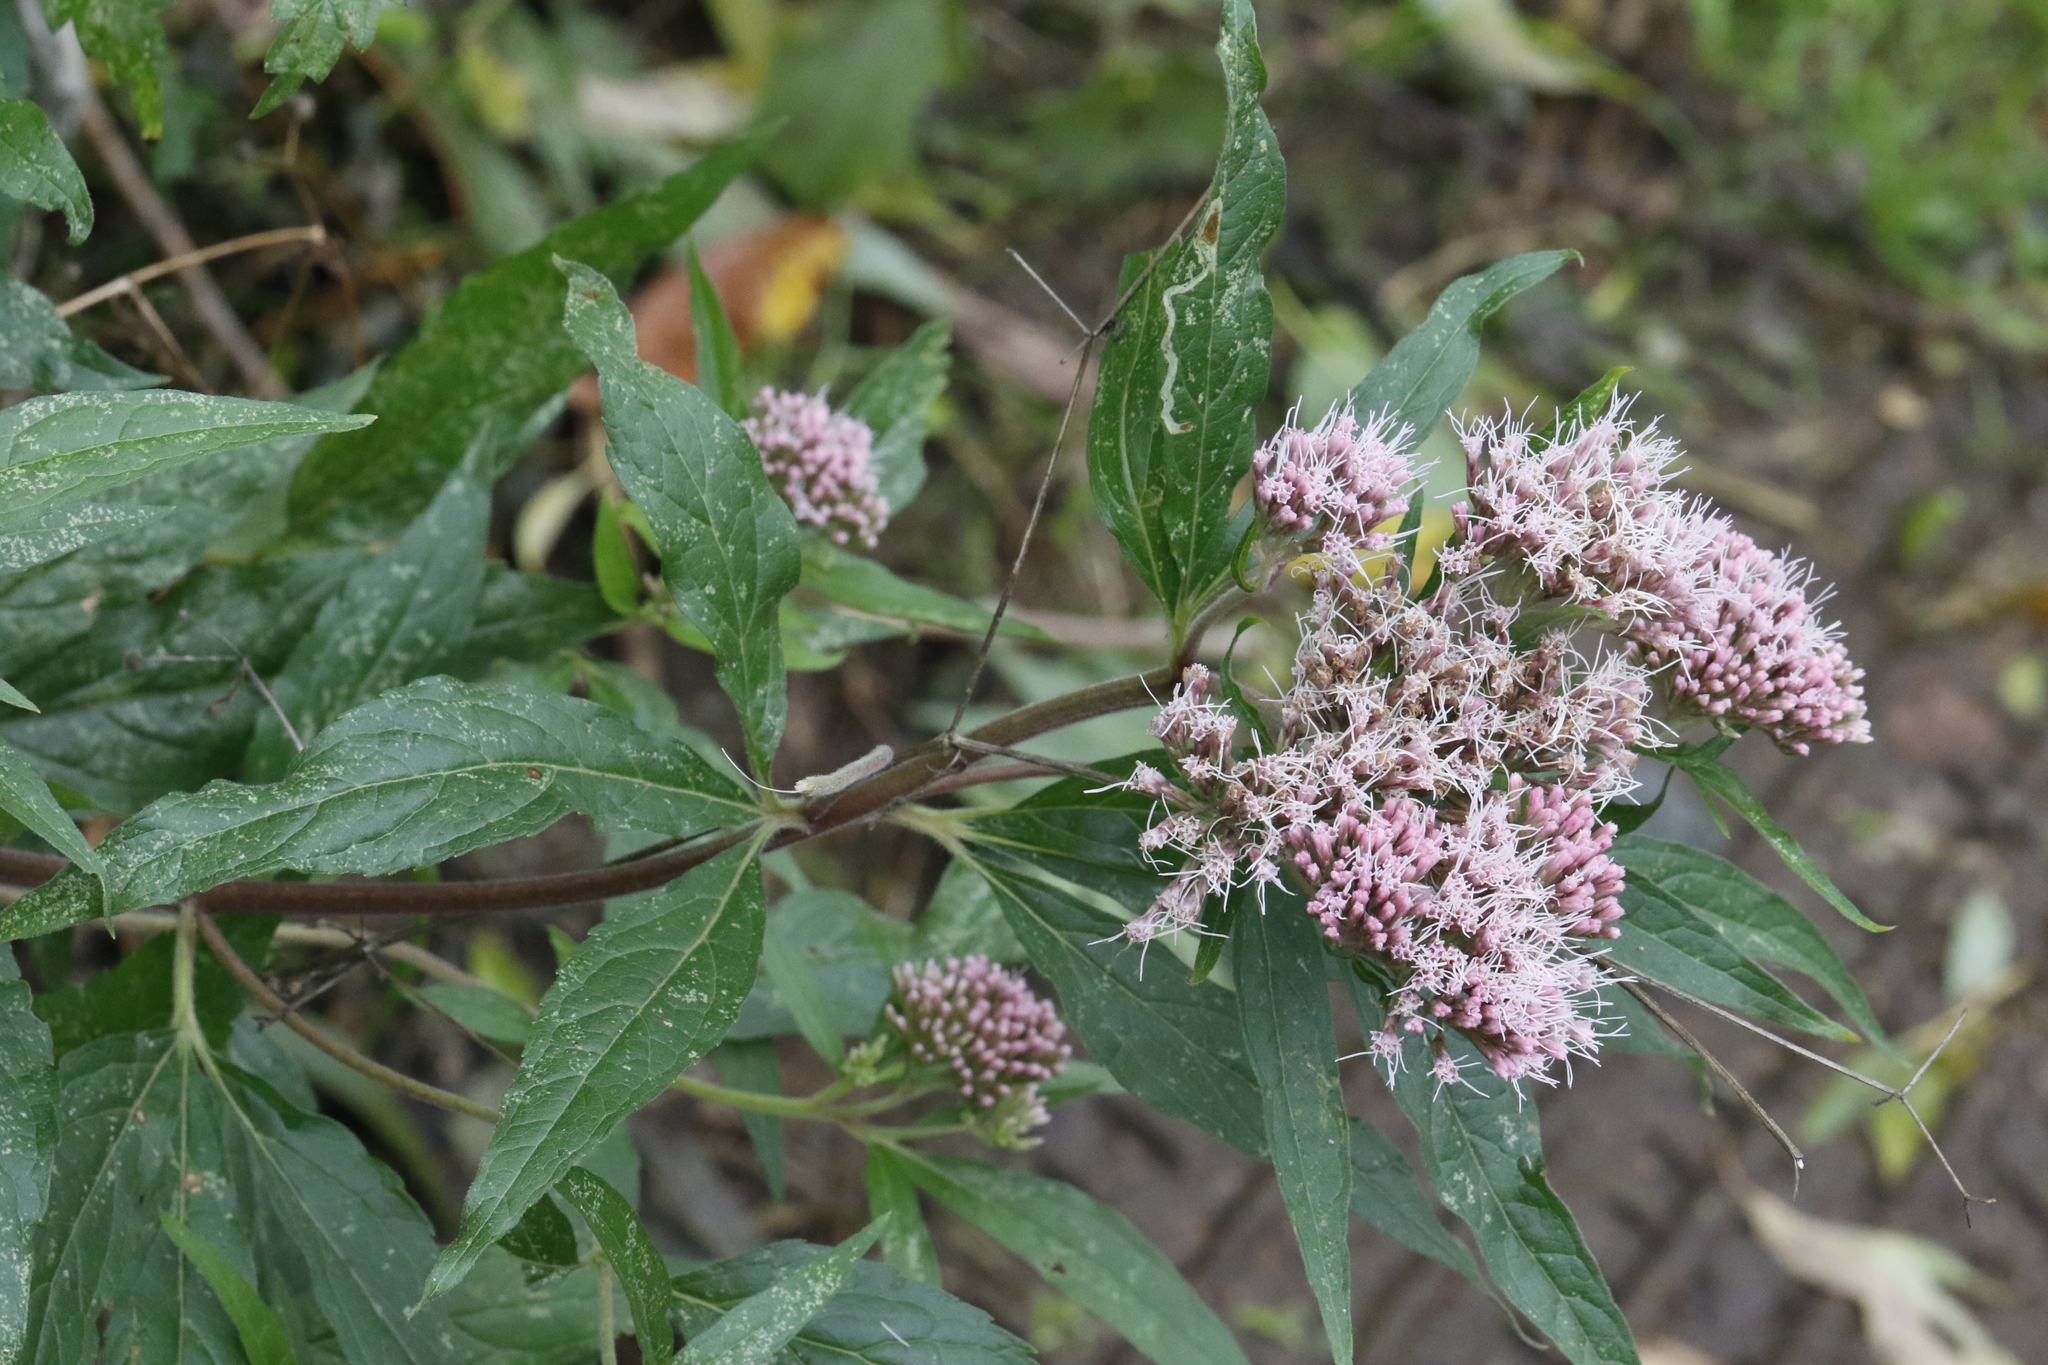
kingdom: Plantae
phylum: Tracheophyta
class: Magnoliopsida
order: Asterales
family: Asteraceae
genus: Eupatorium
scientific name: Eupatorium cannabinum
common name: Hemp-agrimony
